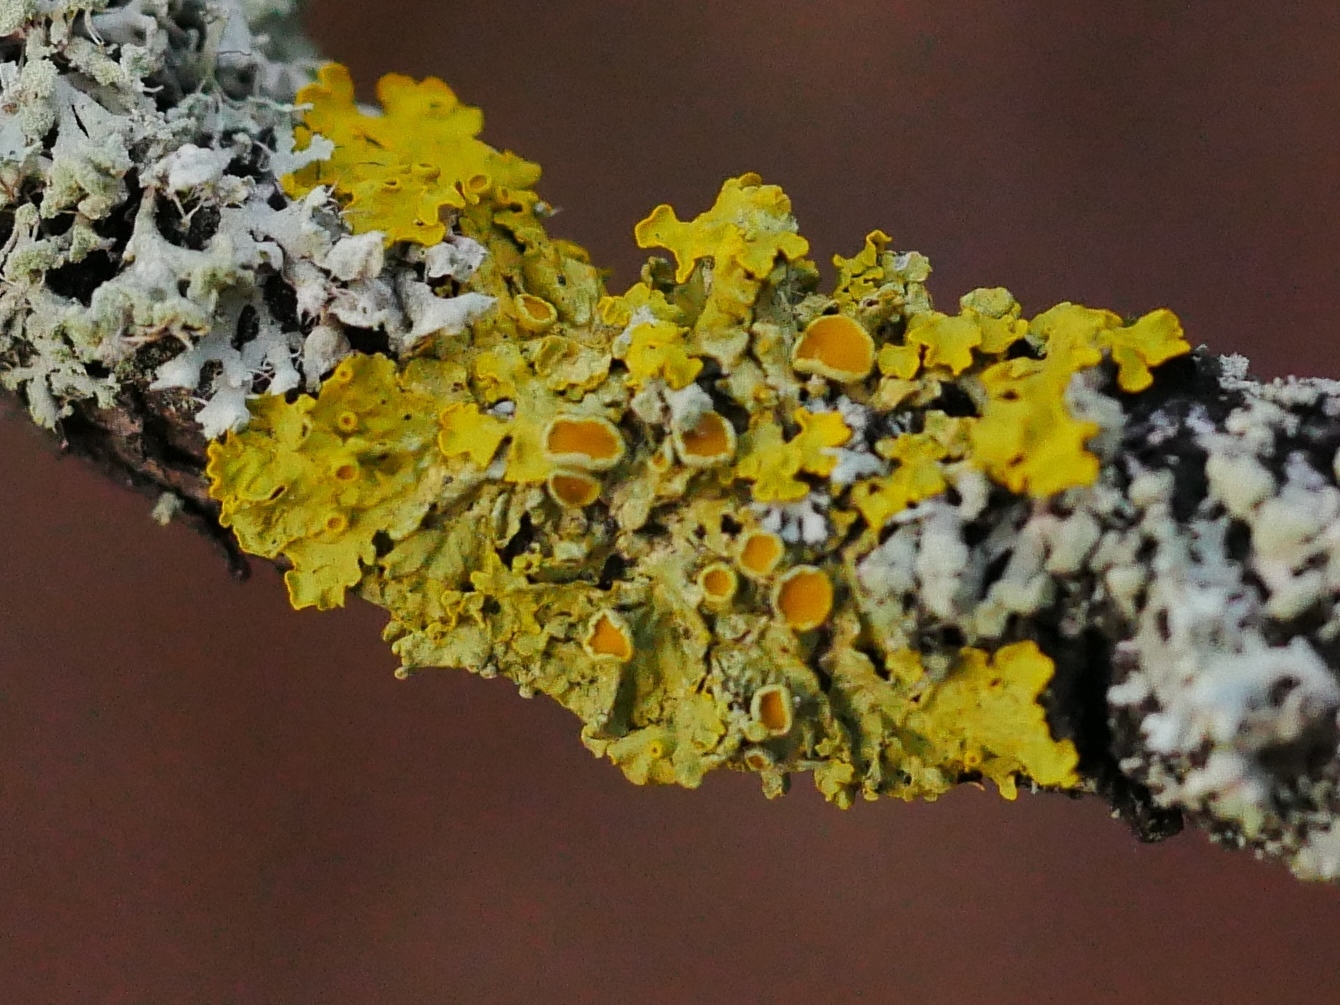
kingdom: Fungi
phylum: Ascomycota
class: Lecanoromycetes
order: Teloschistales
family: Teloschistaceae
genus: Xanthoria
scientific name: Xanthoria parietina
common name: Common orange lichen
